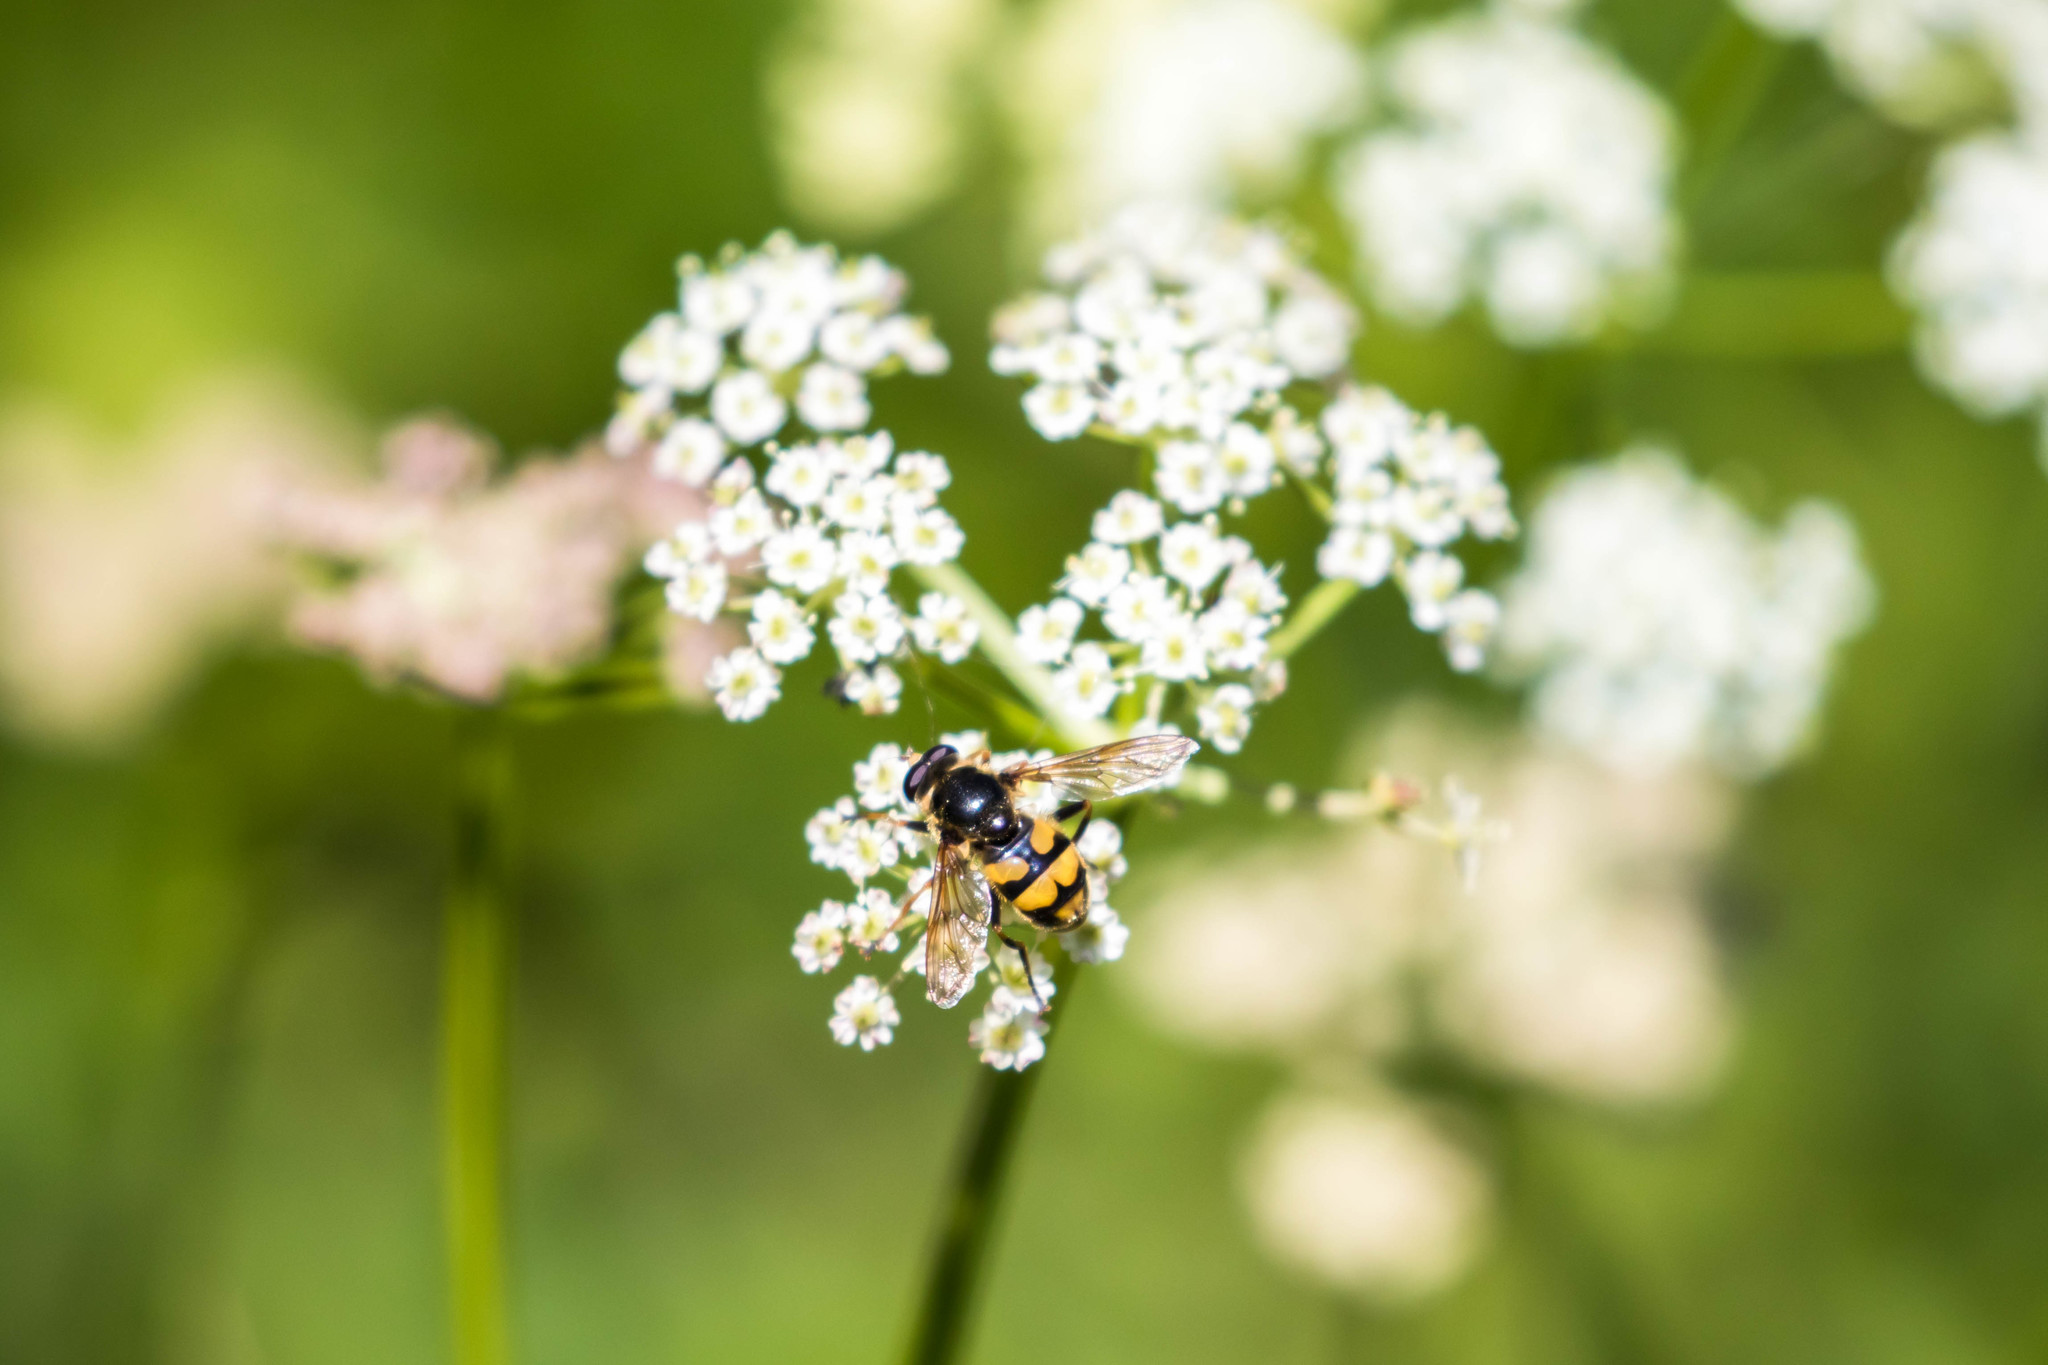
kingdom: Animalia
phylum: Arthropoda
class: Insecta
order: Diptera
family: Syrphidae
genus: Blera
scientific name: Blera scitula
